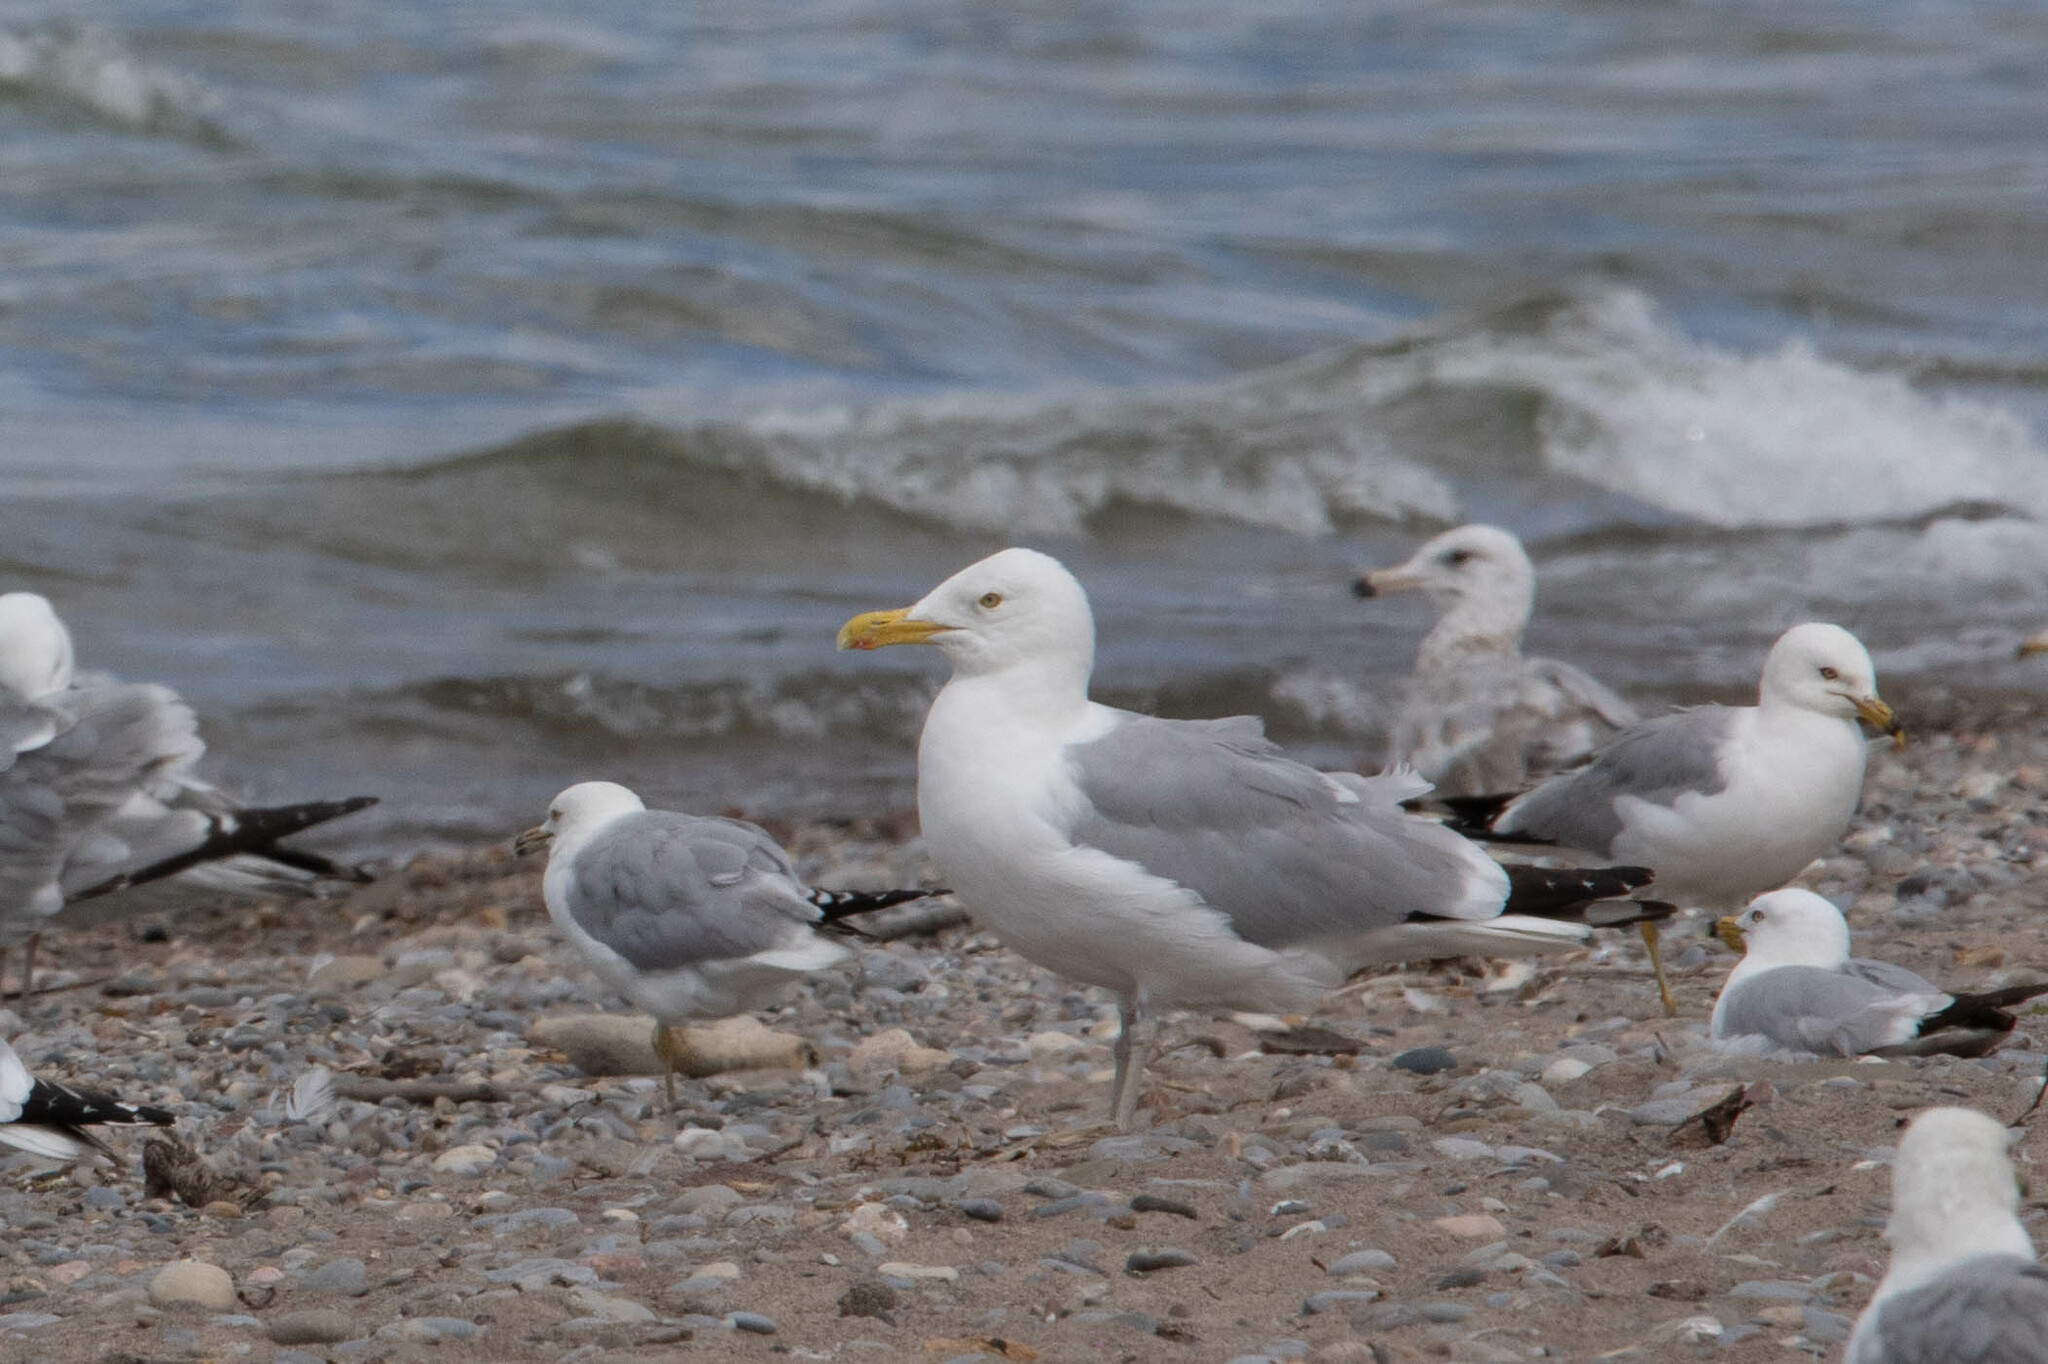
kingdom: Animalia
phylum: Chordata
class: Aves
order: Charadriiformes
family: Laridae
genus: Larus
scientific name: Larus argentatus
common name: Herring gull
